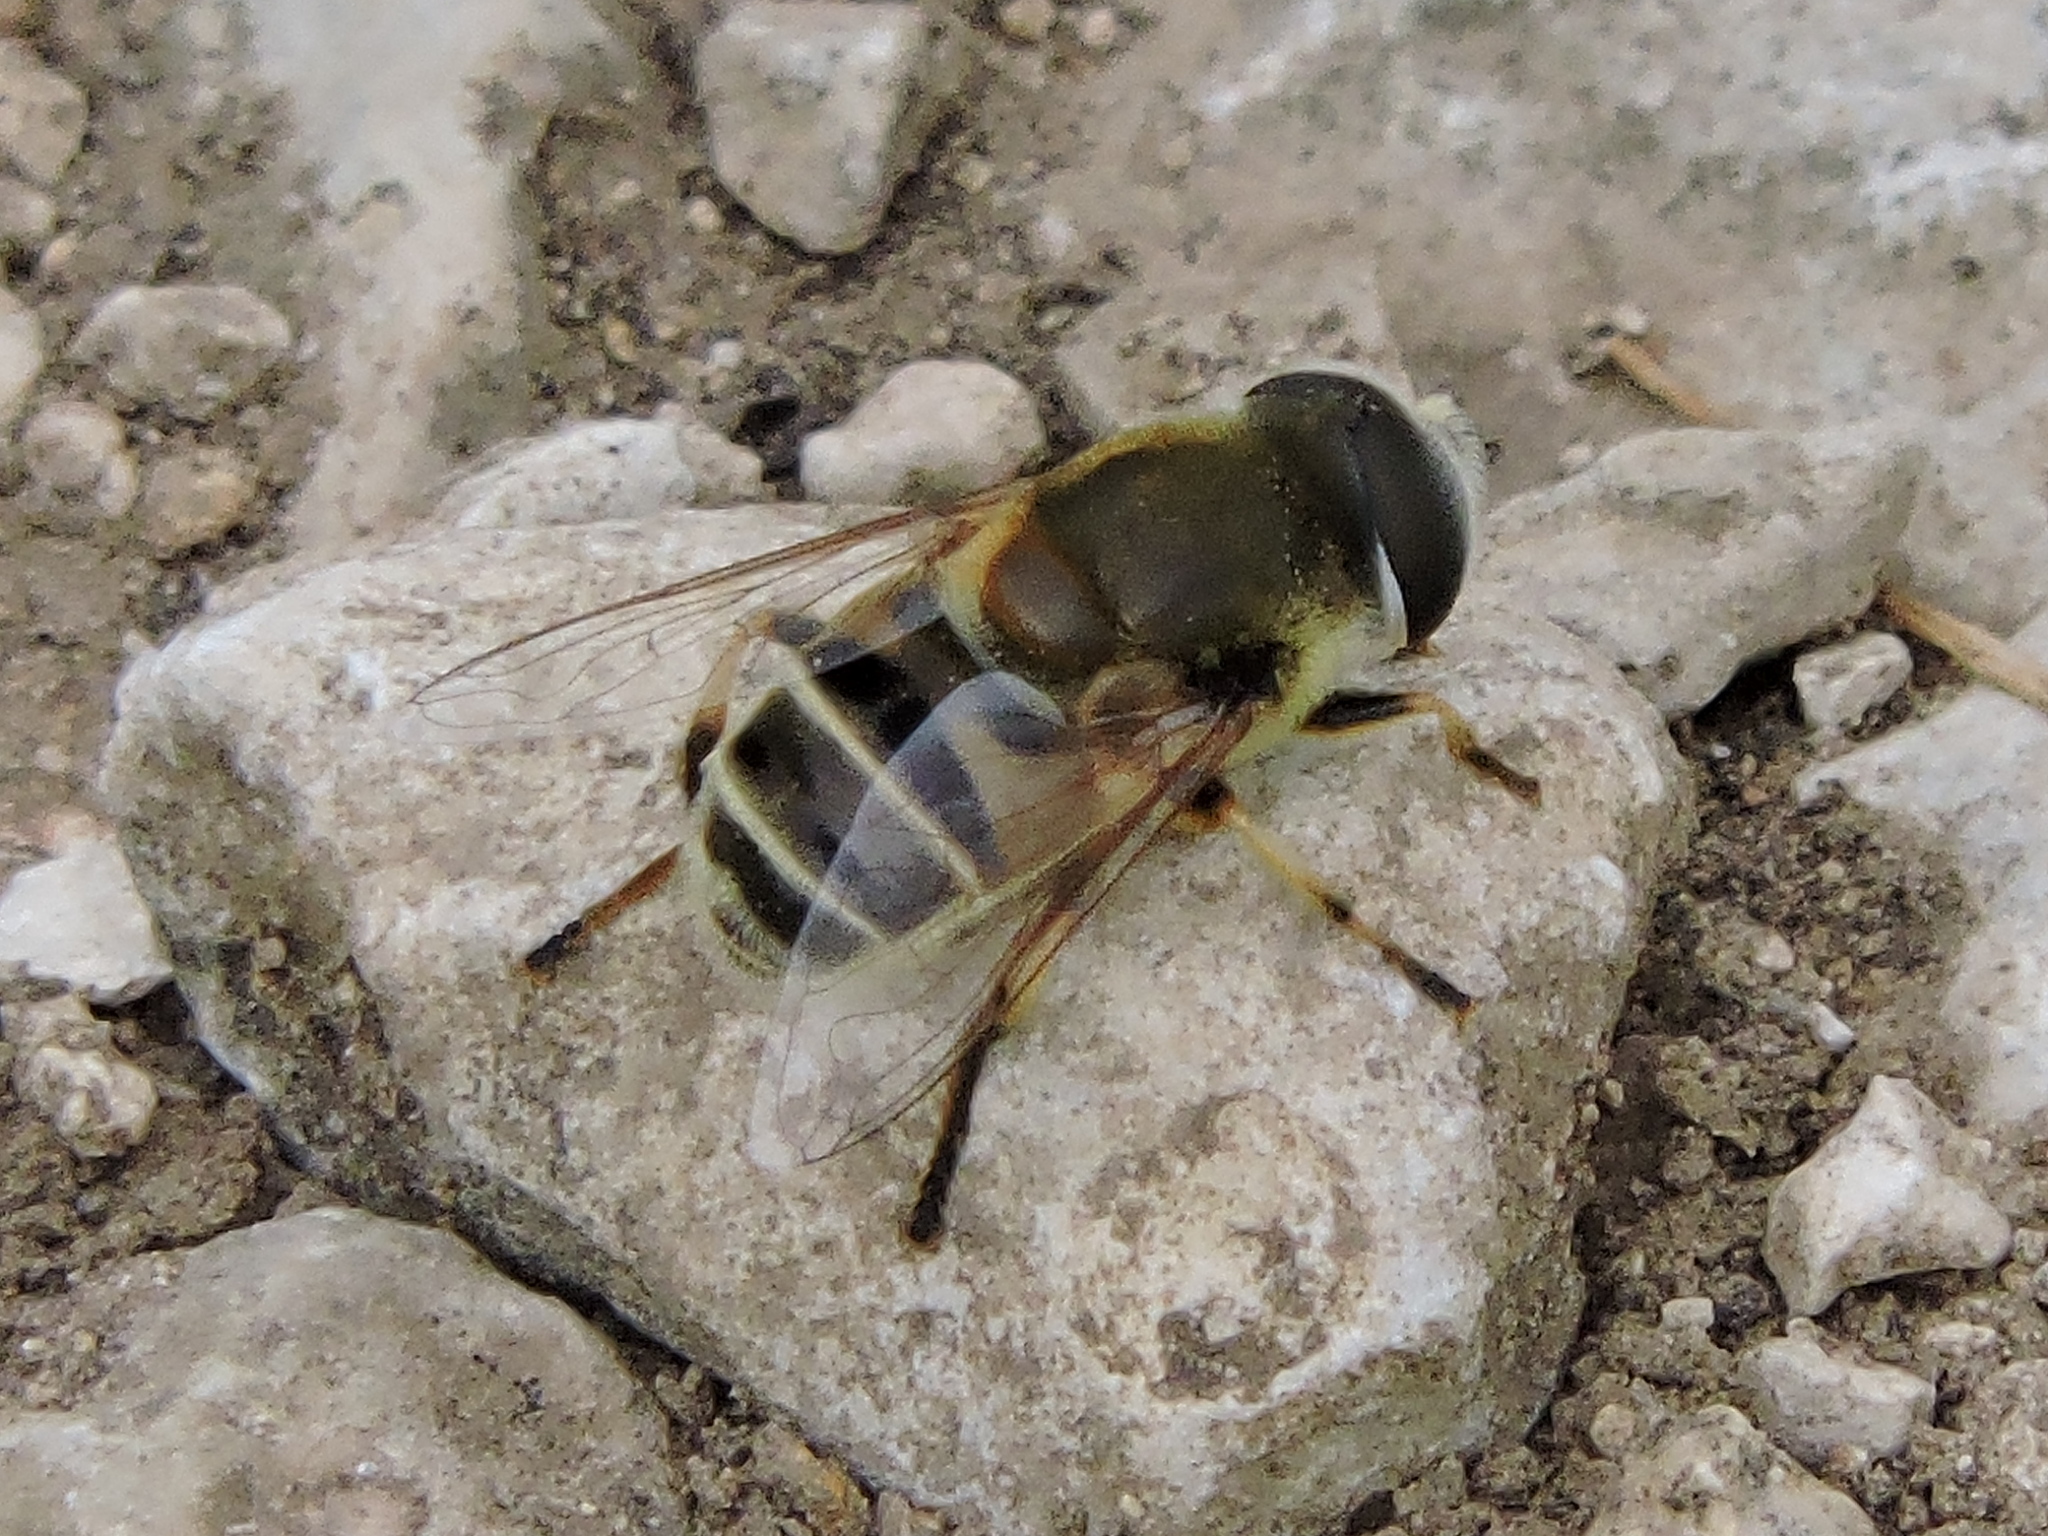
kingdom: Animalia
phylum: Arthropoda
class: Insecta
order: Diptera
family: Syrphidae
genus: Eristalis
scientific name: Eristalis stipator
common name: Yellow-shouldered drone fly
